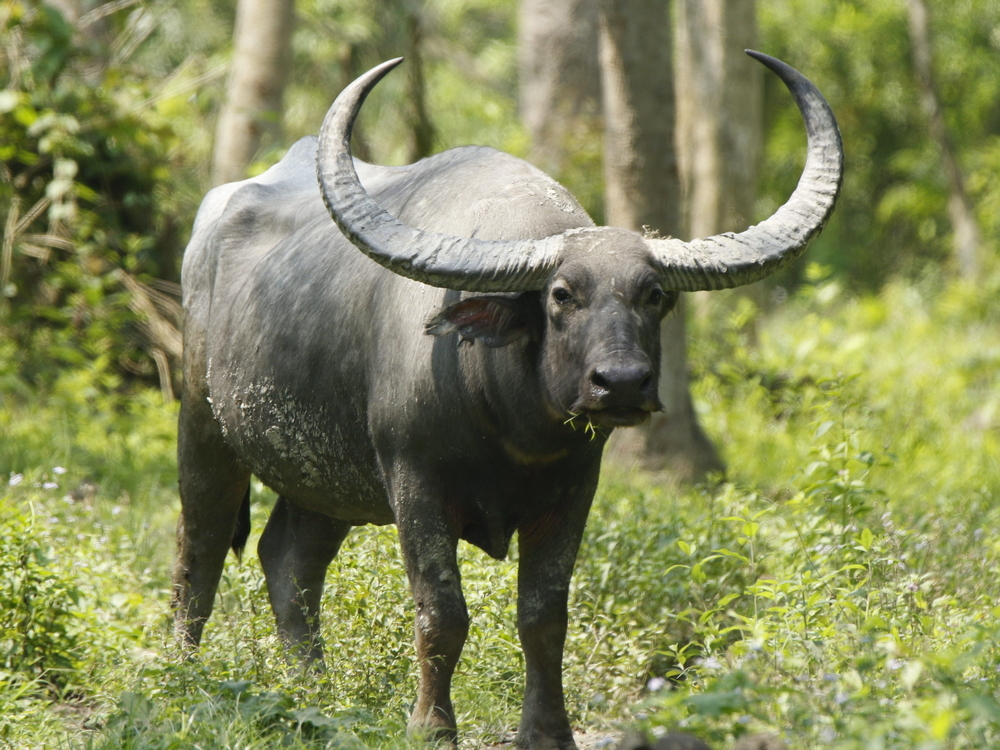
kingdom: Animalia
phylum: Chordata
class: Mammalia
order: Artiodactyla
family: Bovidae
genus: Bubalus
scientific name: Bubalus bubalis
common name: Water buffalo
